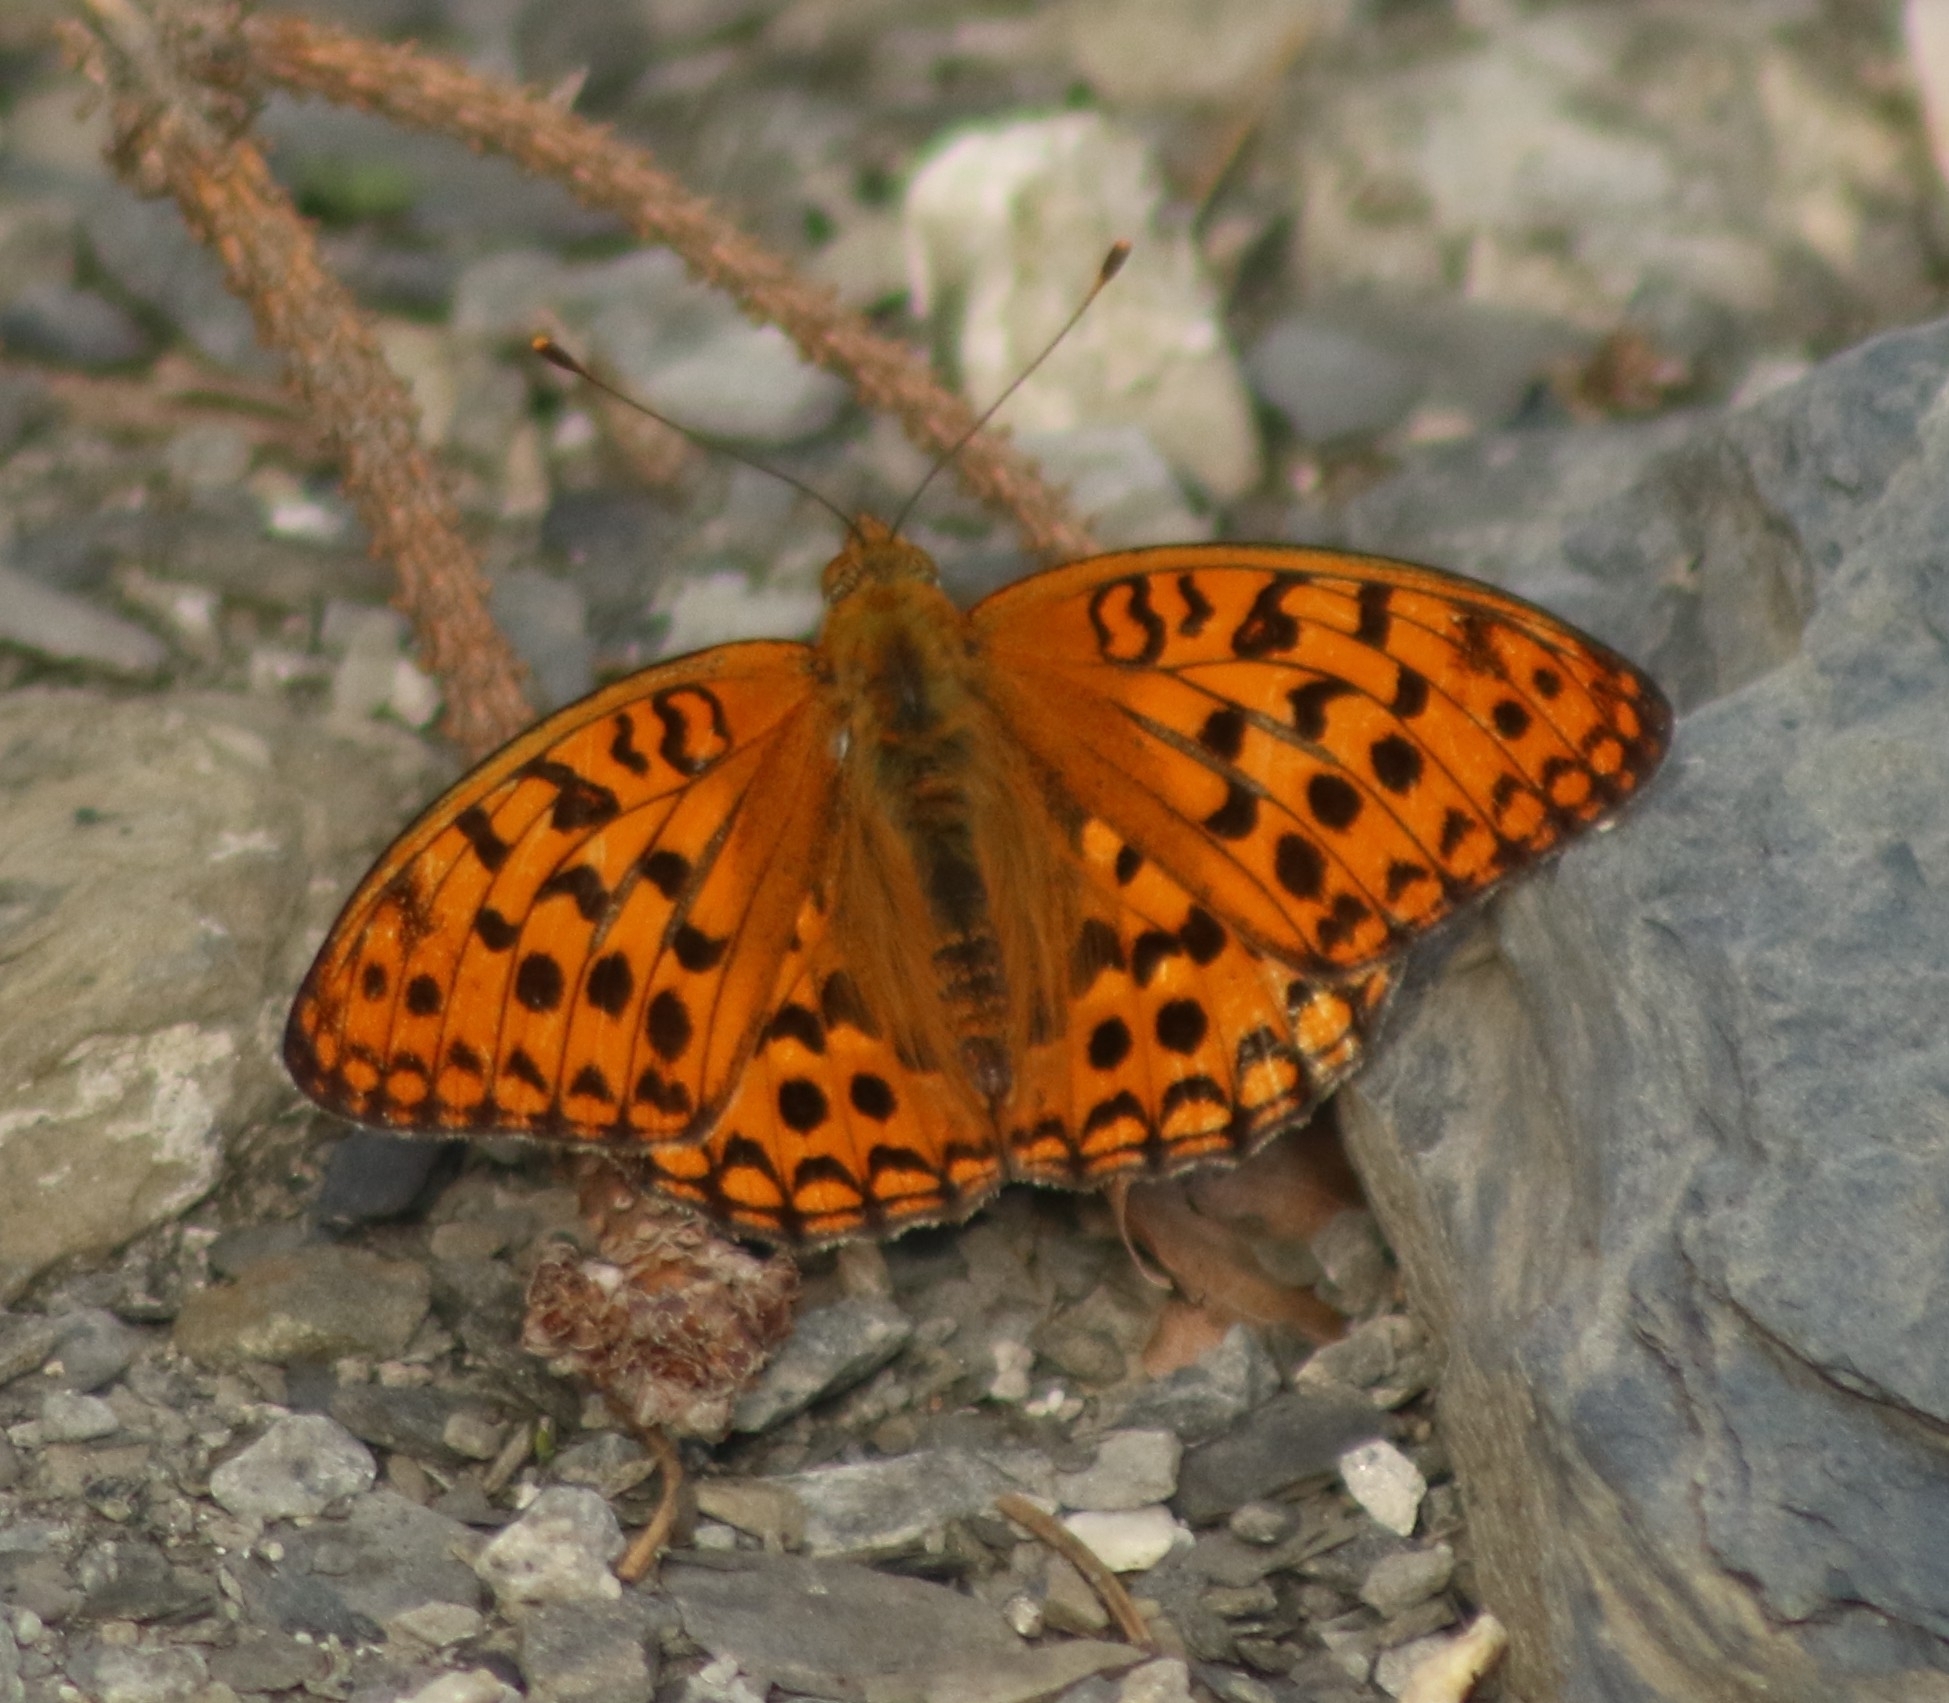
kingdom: Animalia
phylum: Arthropoda
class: Insecta
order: Lepidoptera
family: Nymphalidae
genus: Fabriciana
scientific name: Fabriciana adippe
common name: High brown fritillary
